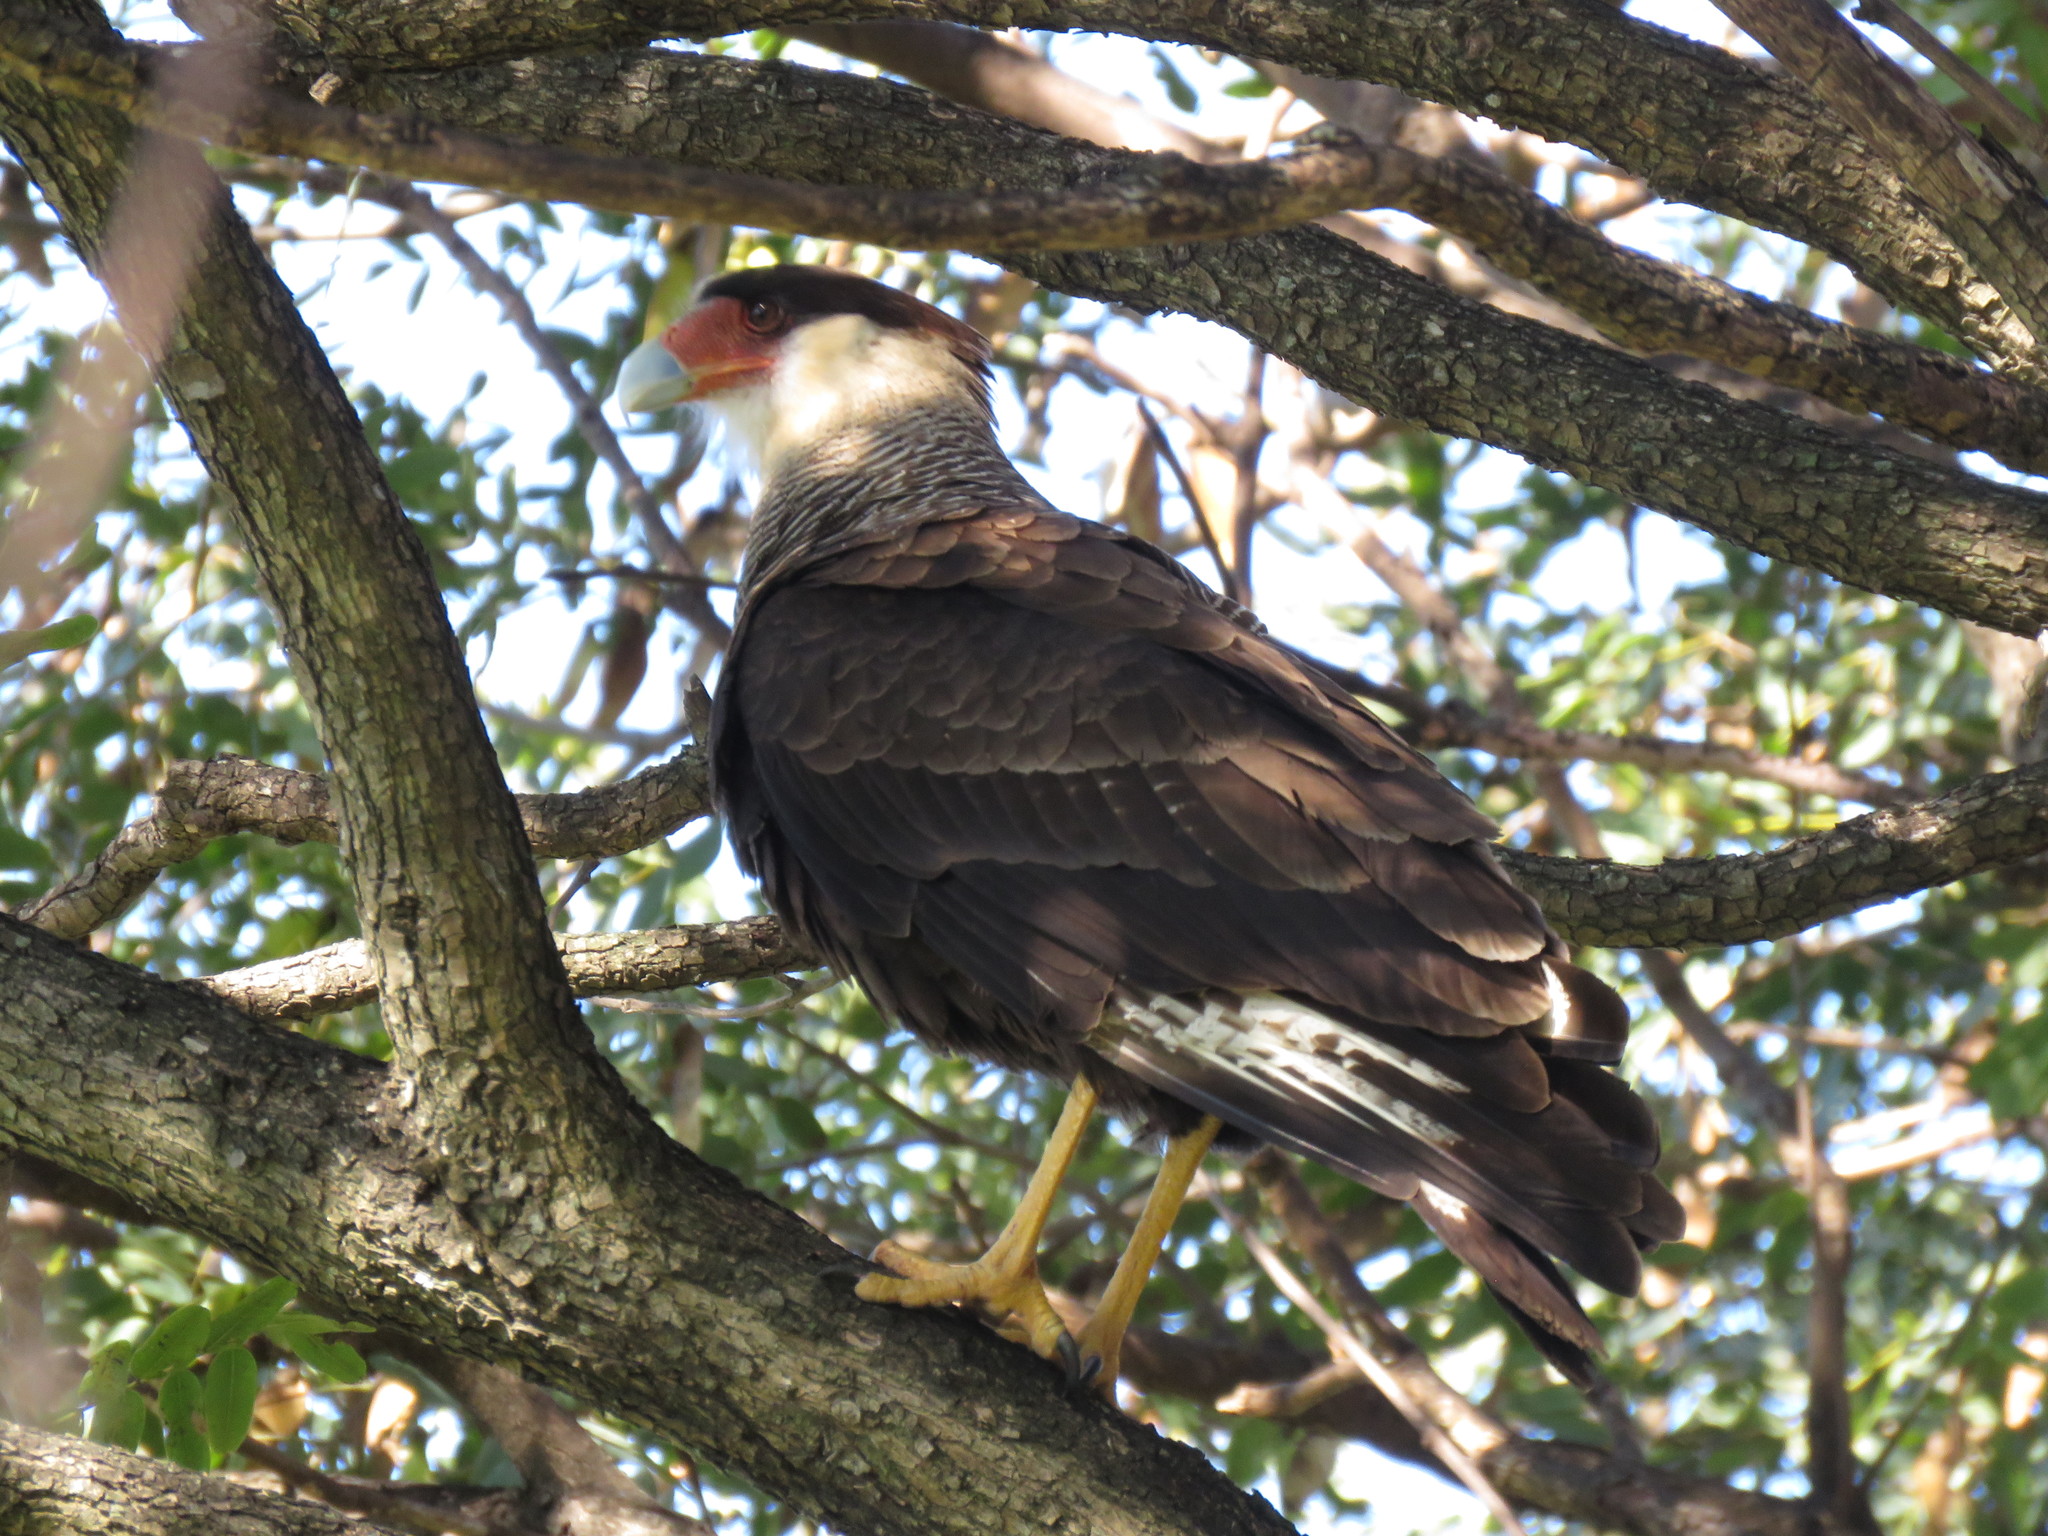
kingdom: Animalia
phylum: Chordata
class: Aves
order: Falconiformes
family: Falconidae
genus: Caracara
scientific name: Caracara plancus
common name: Southern caracara
